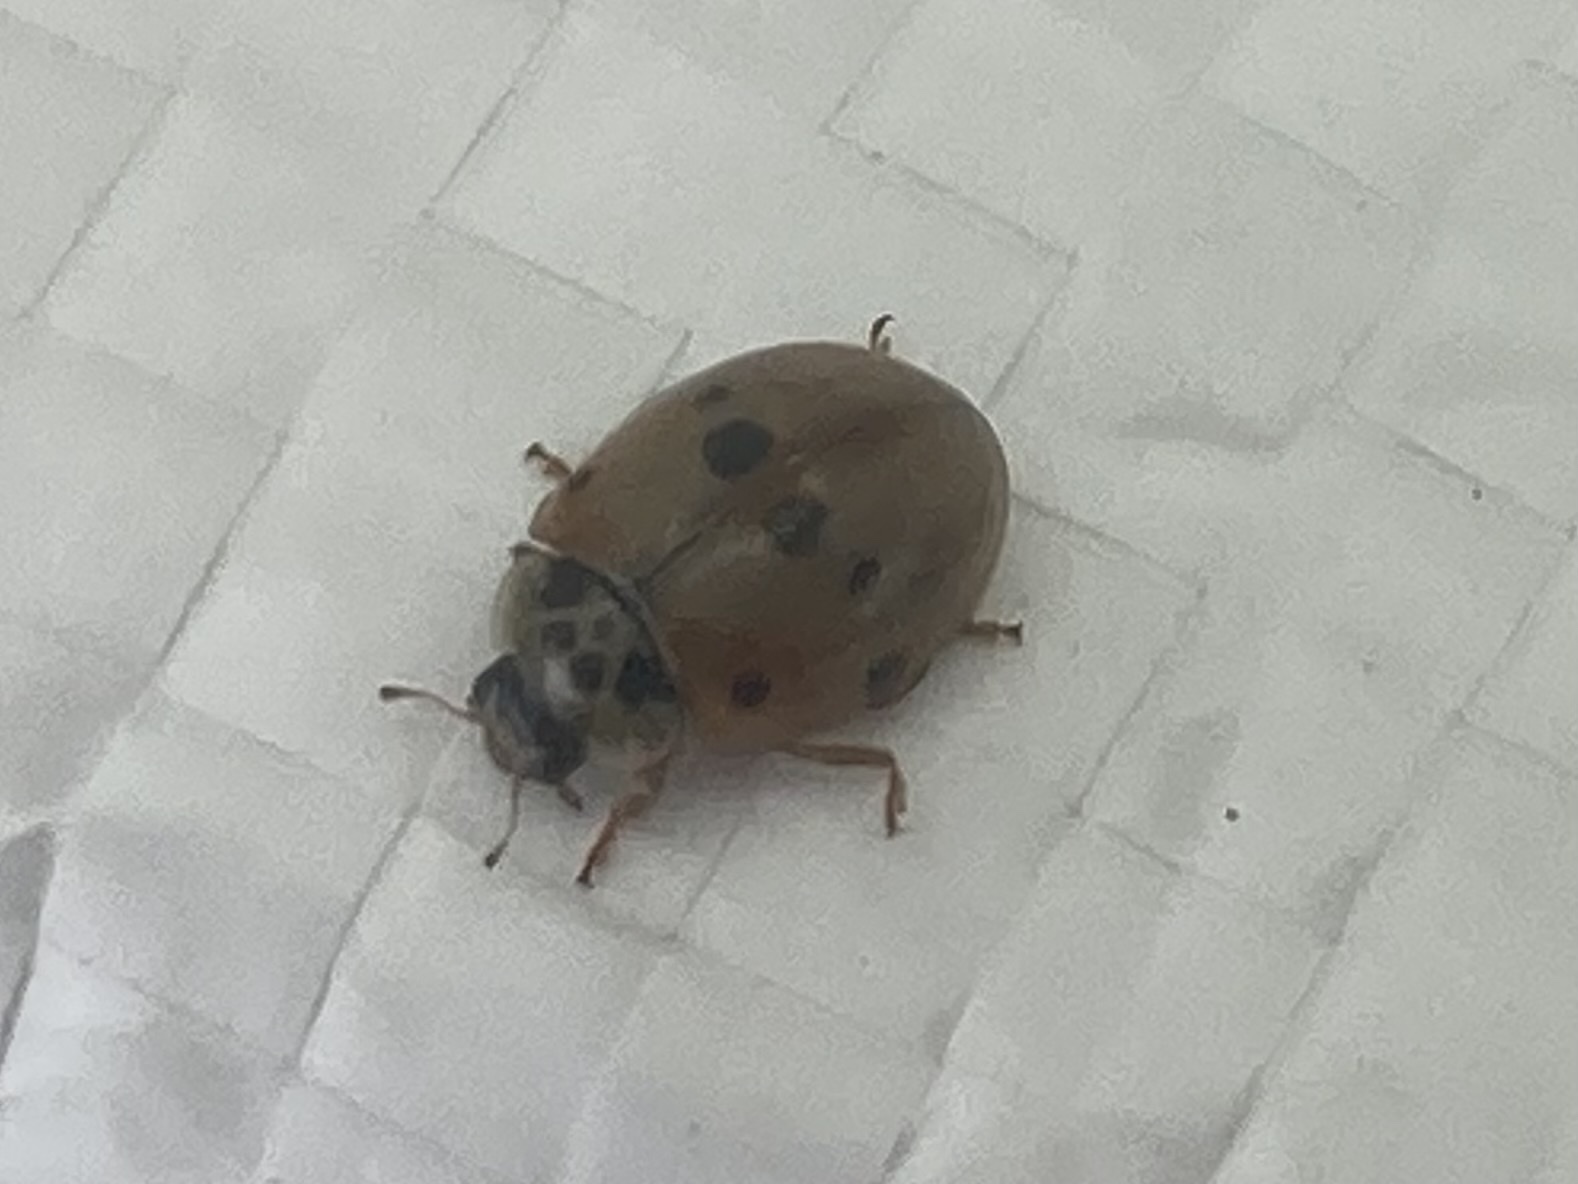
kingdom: Animalia
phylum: Arthropoda
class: Insecta
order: Coleoptera
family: Coccinellidae
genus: Adalia
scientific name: Adalia decempunctata
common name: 10-spot ladybird
